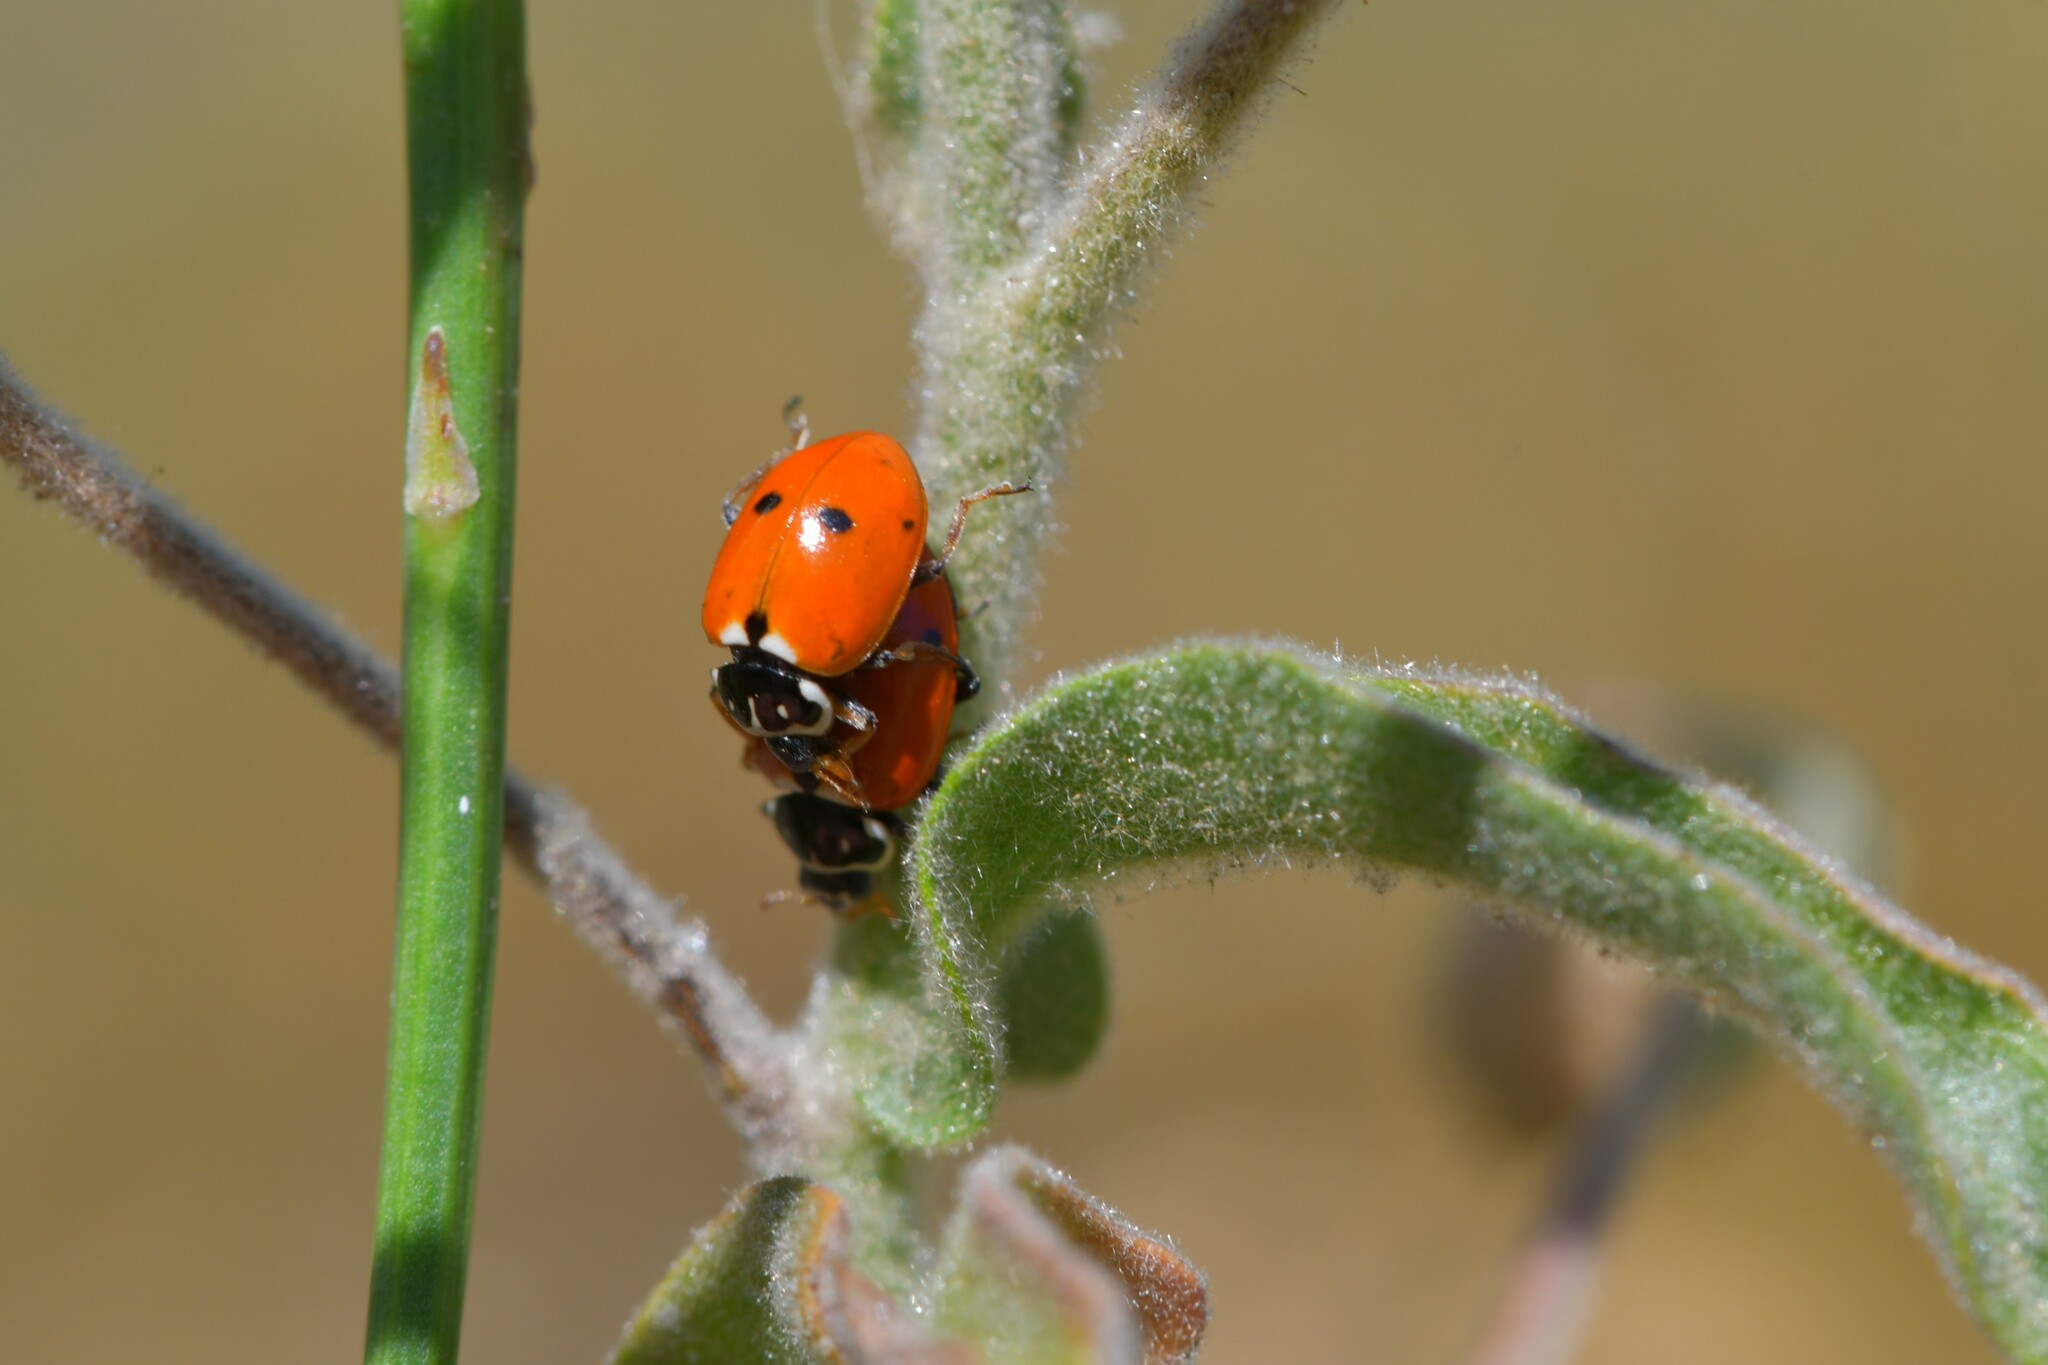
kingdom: Animalia
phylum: Arthropoda
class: Insecta
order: Coleoptera
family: Coccinellidae
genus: Hippodamia
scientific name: Hippodamia variegata
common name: Ladybird beetle
